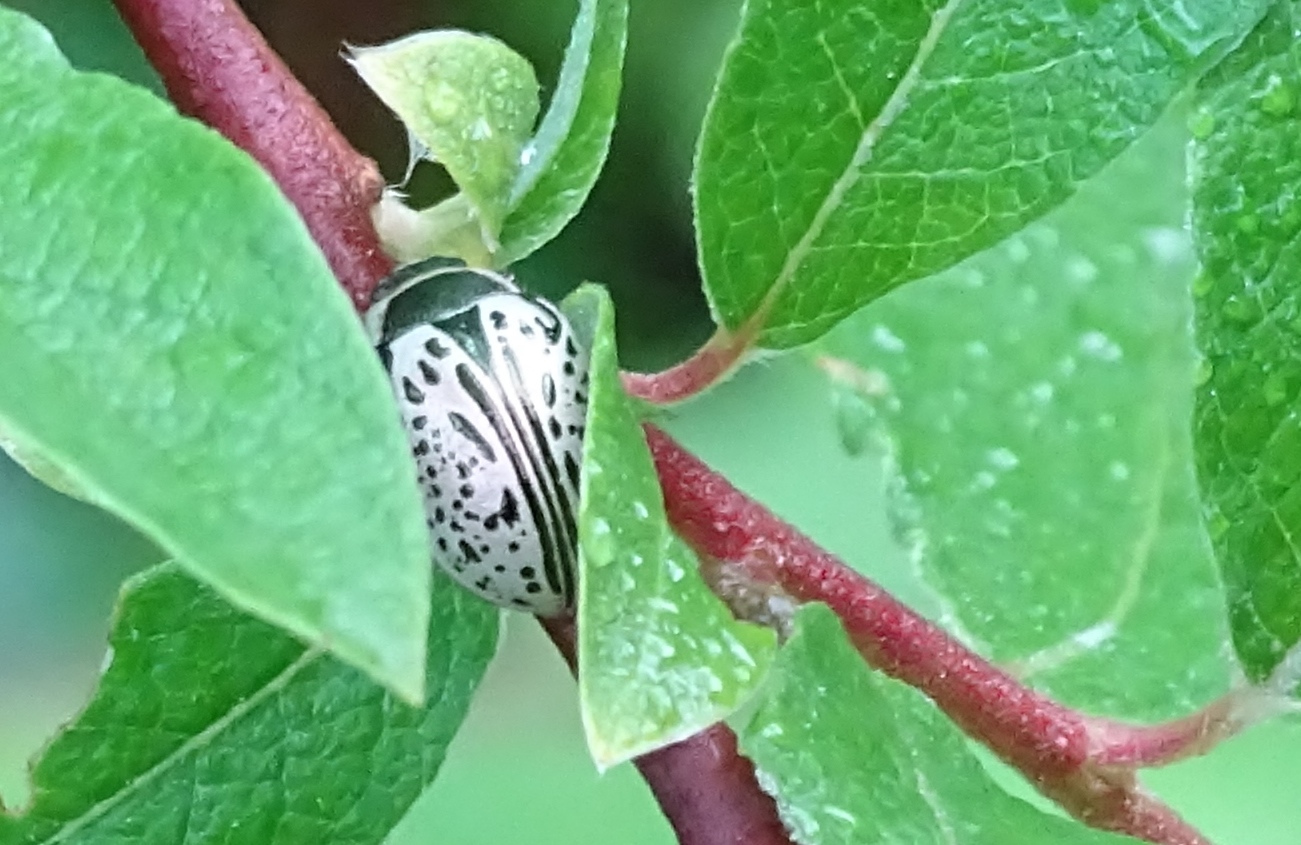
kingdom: Animalia
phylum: Arthropoda
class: Insecta
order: Coleoptera
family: Chrysomelidae
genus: Calligrapha
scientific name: Calligrapha multipunctata
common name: Common willow calligrapher beetle
